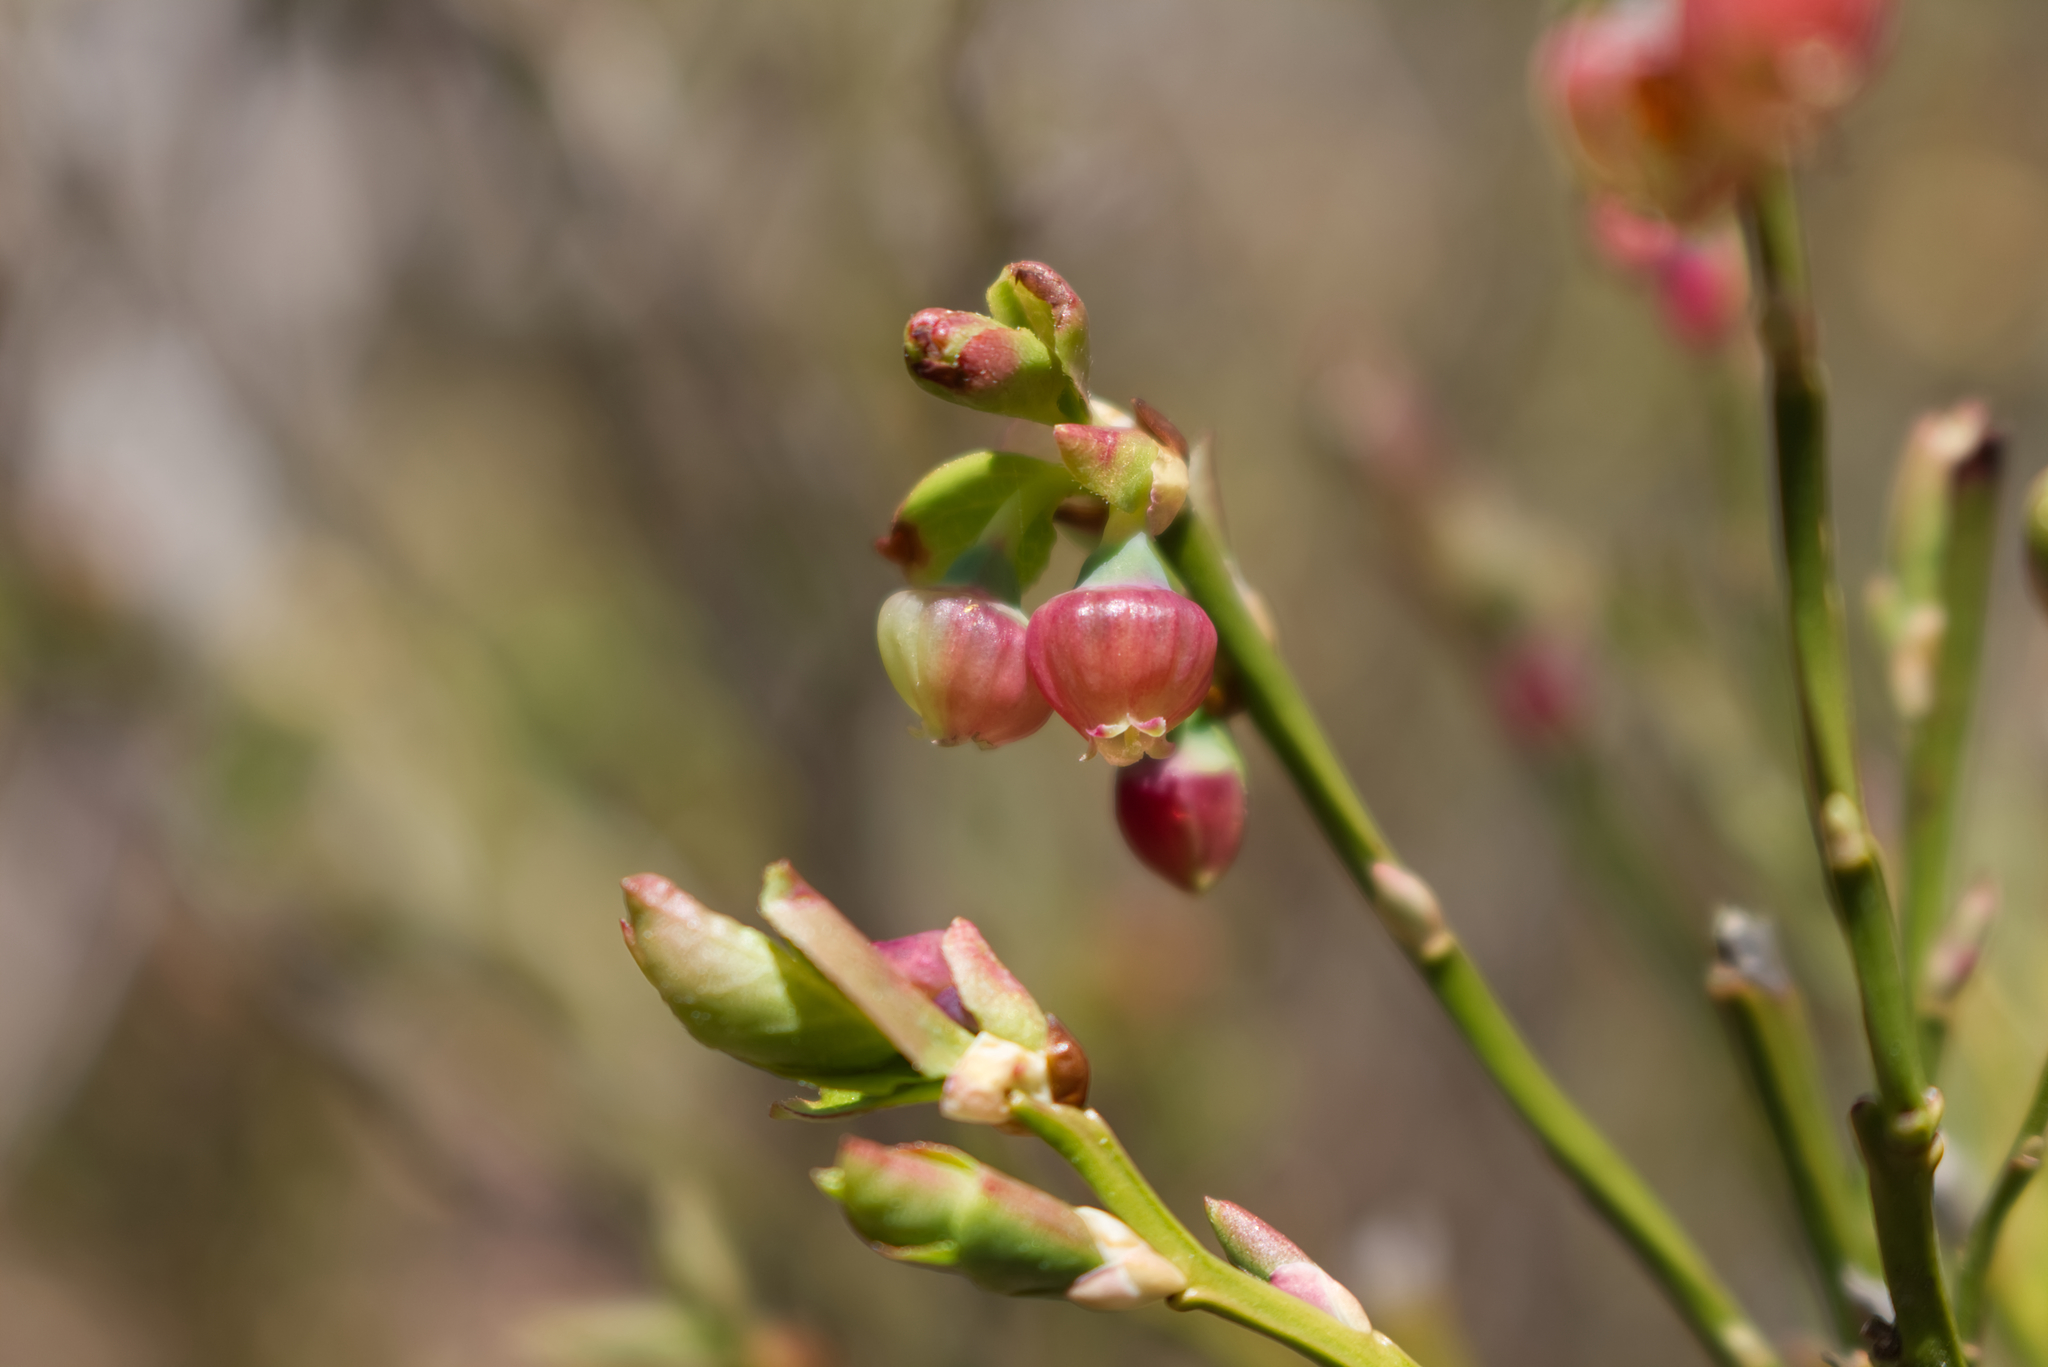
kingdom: Plantae
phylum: Tracheophyta
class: Magnoliopsida
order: Ericales
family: Ericaceae
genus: Vaccinium
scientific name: Vaccinium myrtillus
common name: Bilberry
